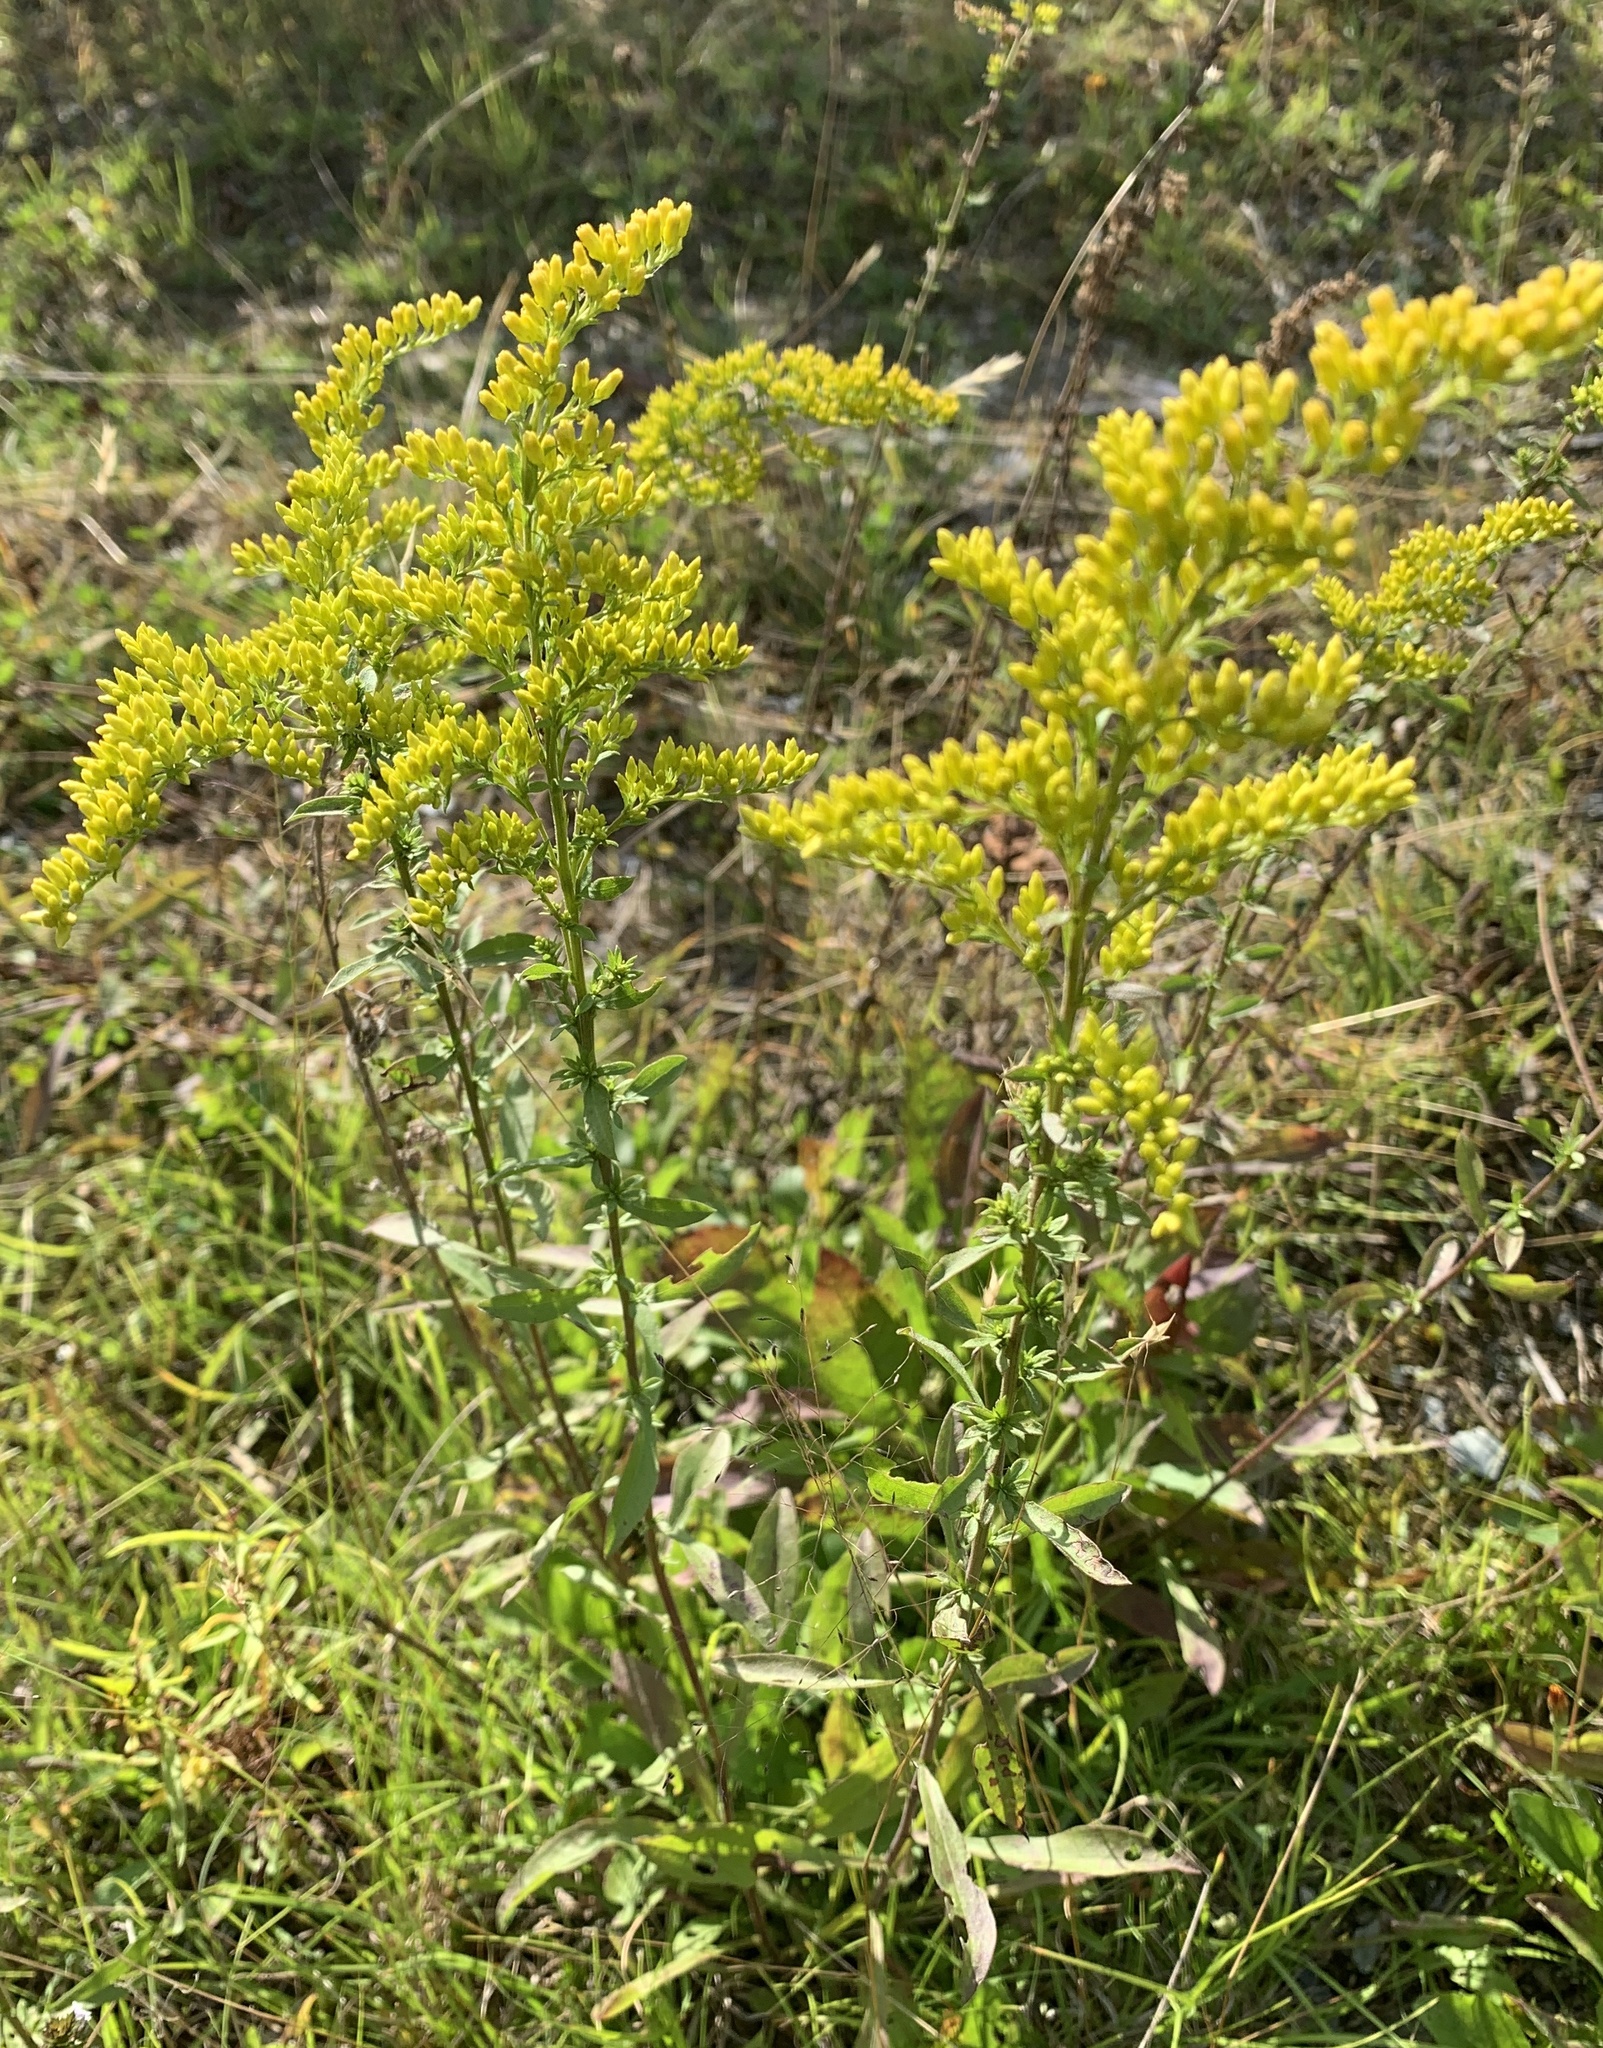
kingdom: Plantae
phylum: Tracheophyta
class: Magnoliopsida
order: Asterales
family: Asteraceae
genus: Solidago
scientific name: Solidago nemoralis
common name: Grey goldenrod
